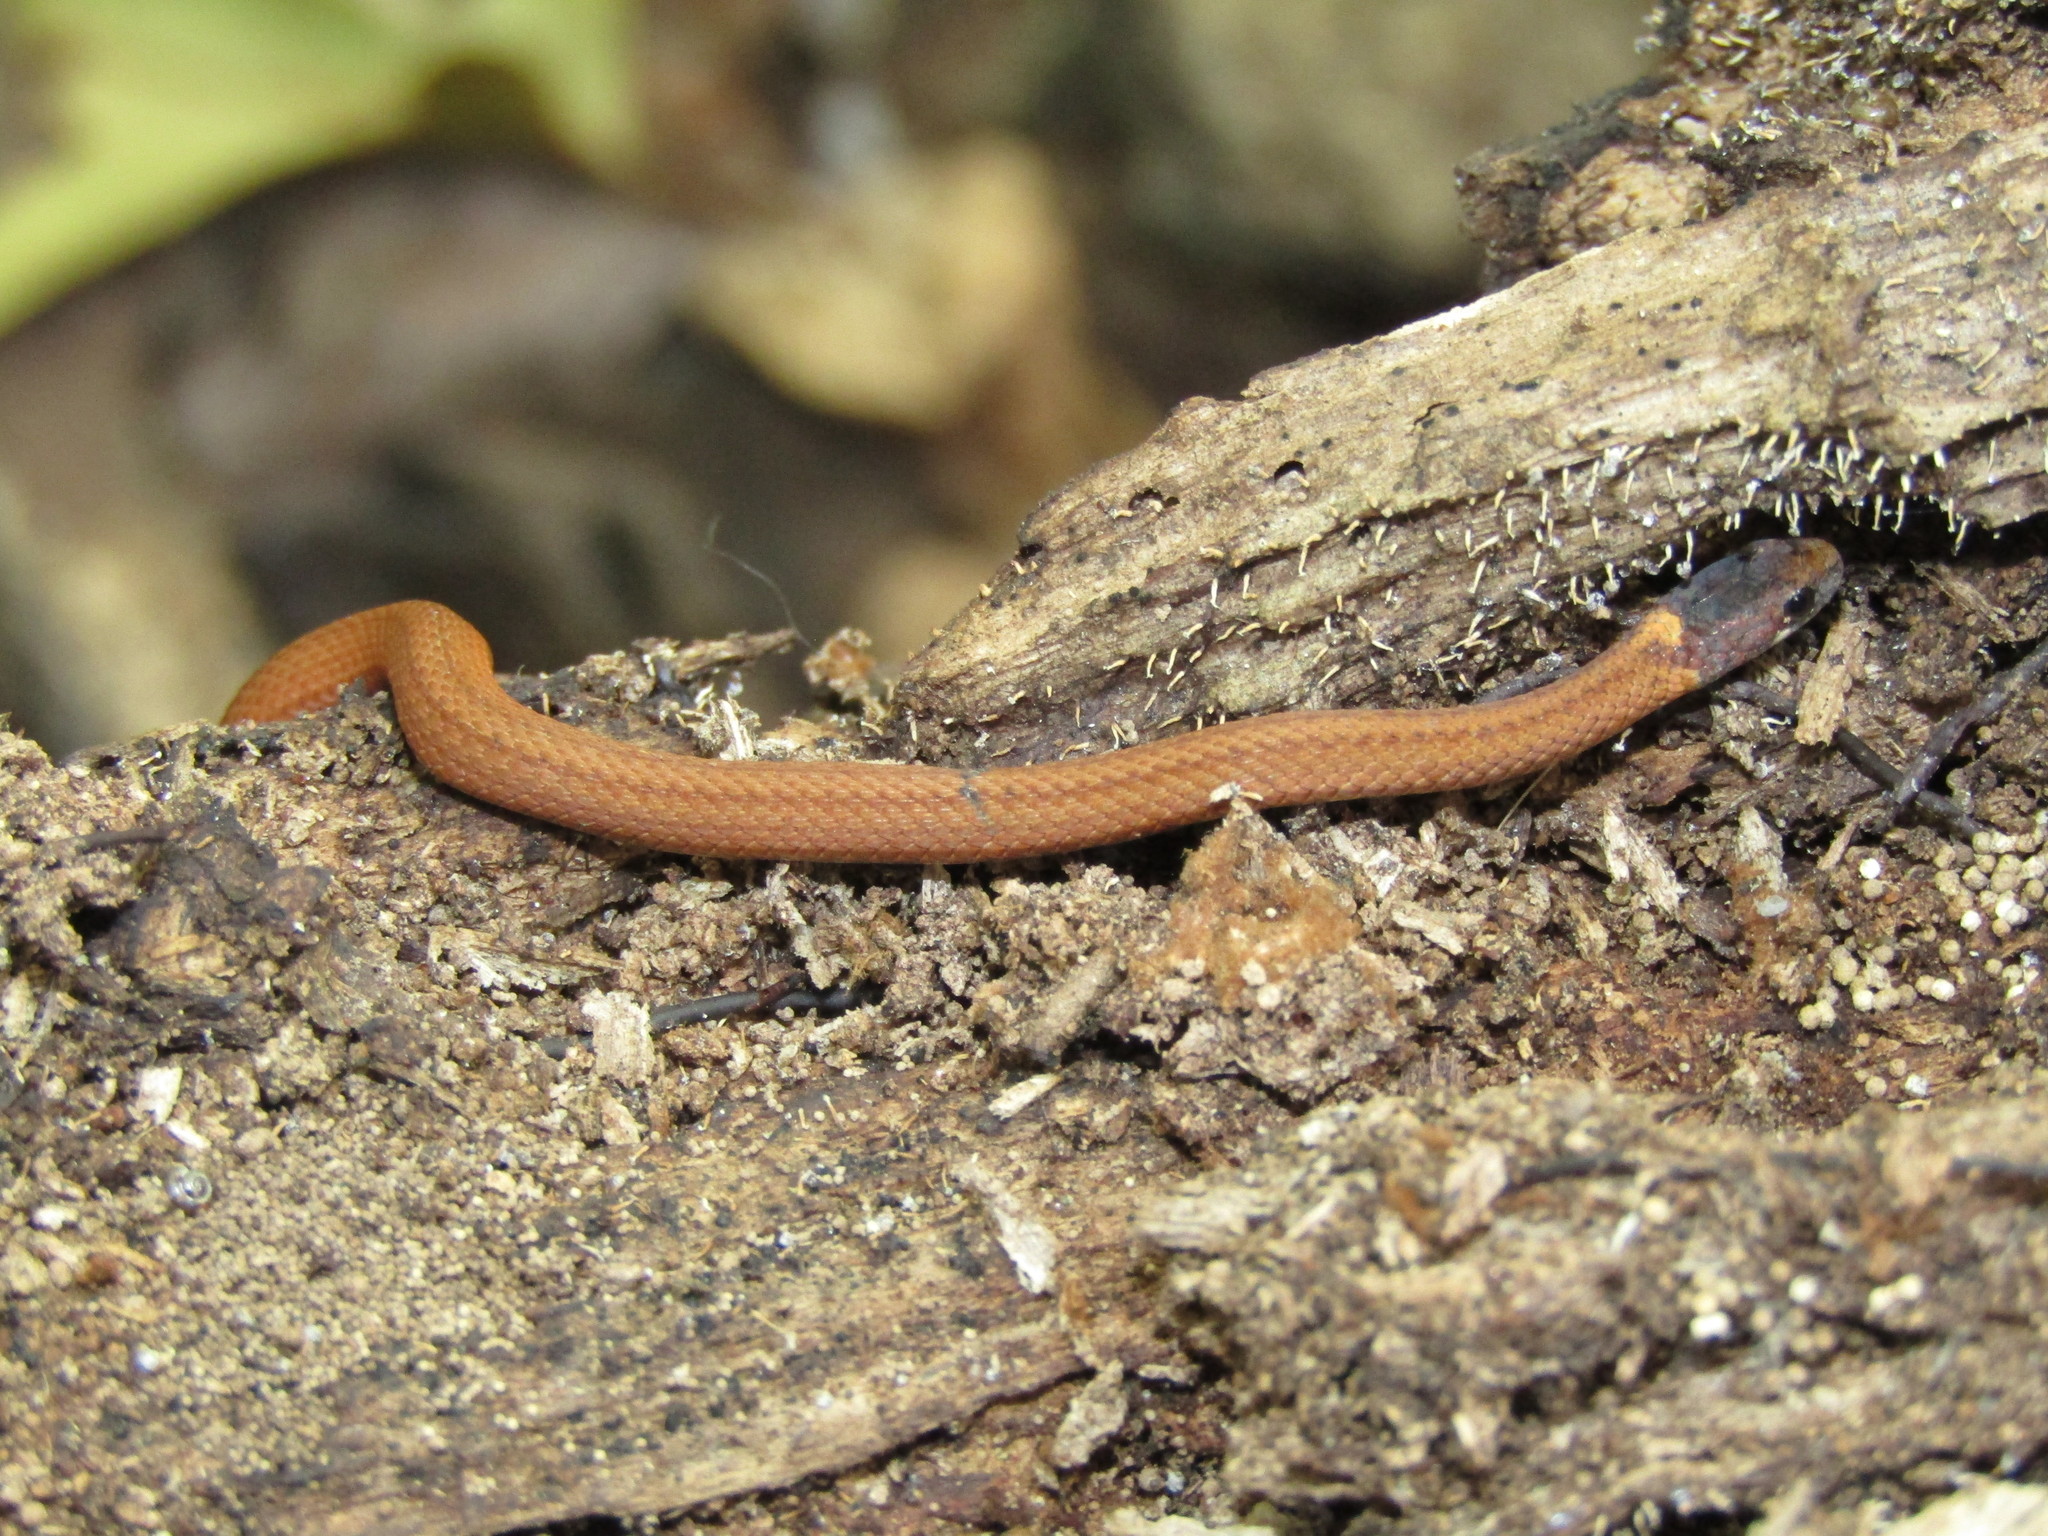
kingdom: Animalia
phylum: Chordata
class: Squamata
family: Colubridae
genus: Storeria
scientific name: Storeria occipitomaculata
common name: Redbelly snake
